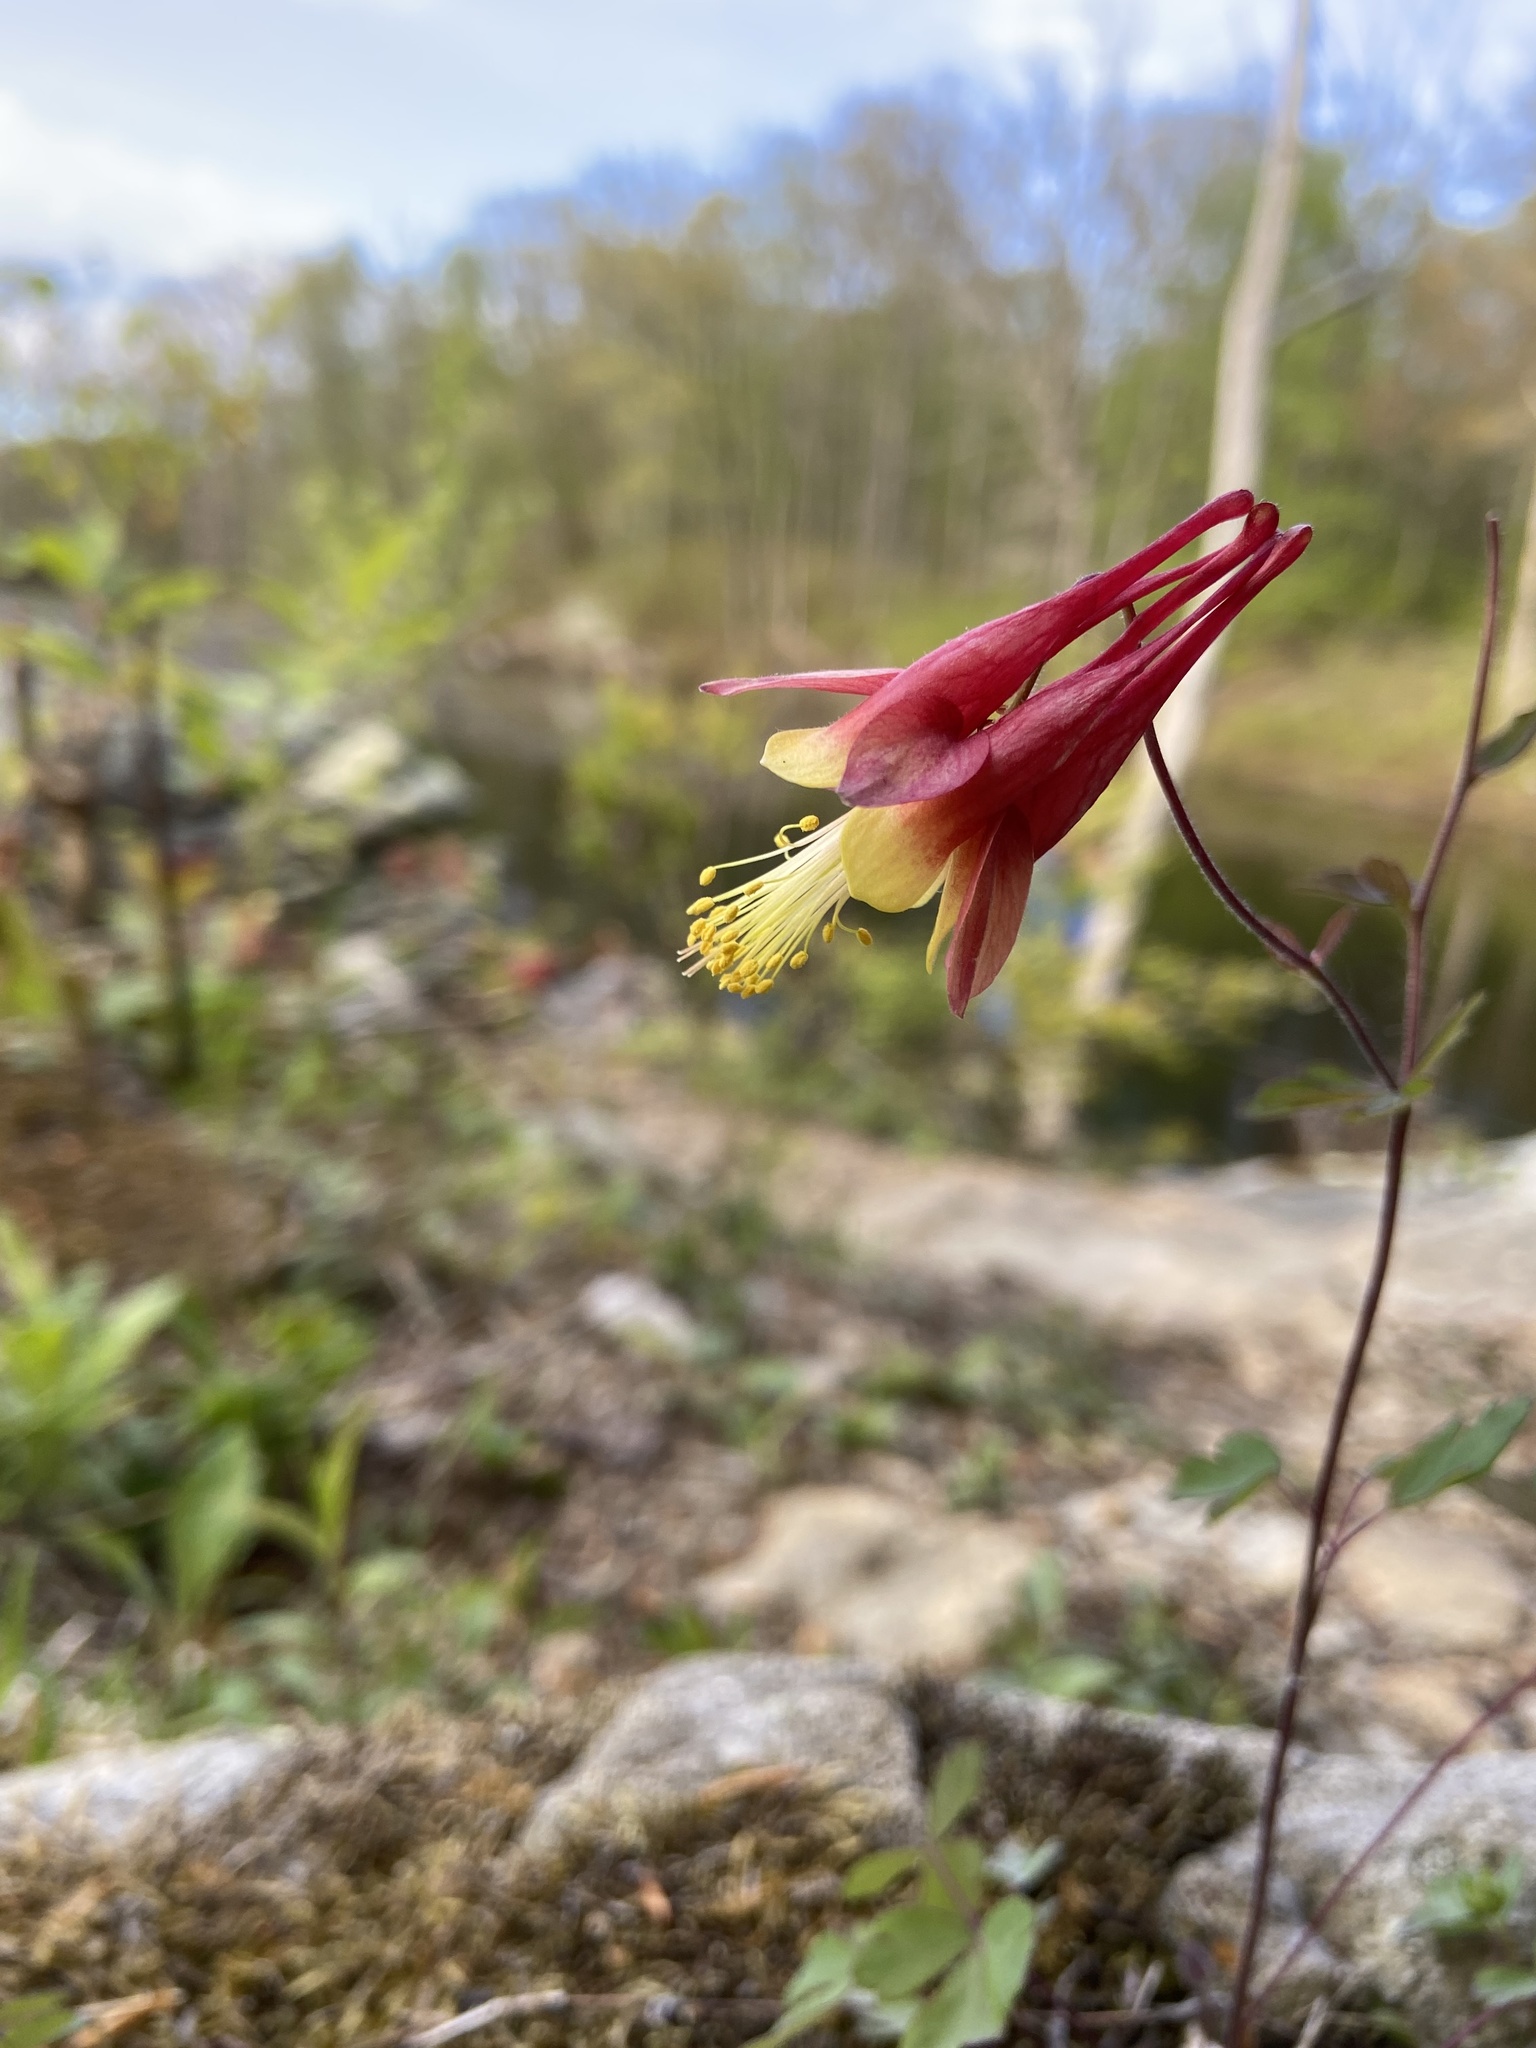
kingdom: Plantae
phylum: Tracheophyta
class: Magnoliopsida
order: Ranunculales
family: Ranunculaceae
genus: Aquilegia
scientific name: Aquilegia canadensis
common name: American columbine
